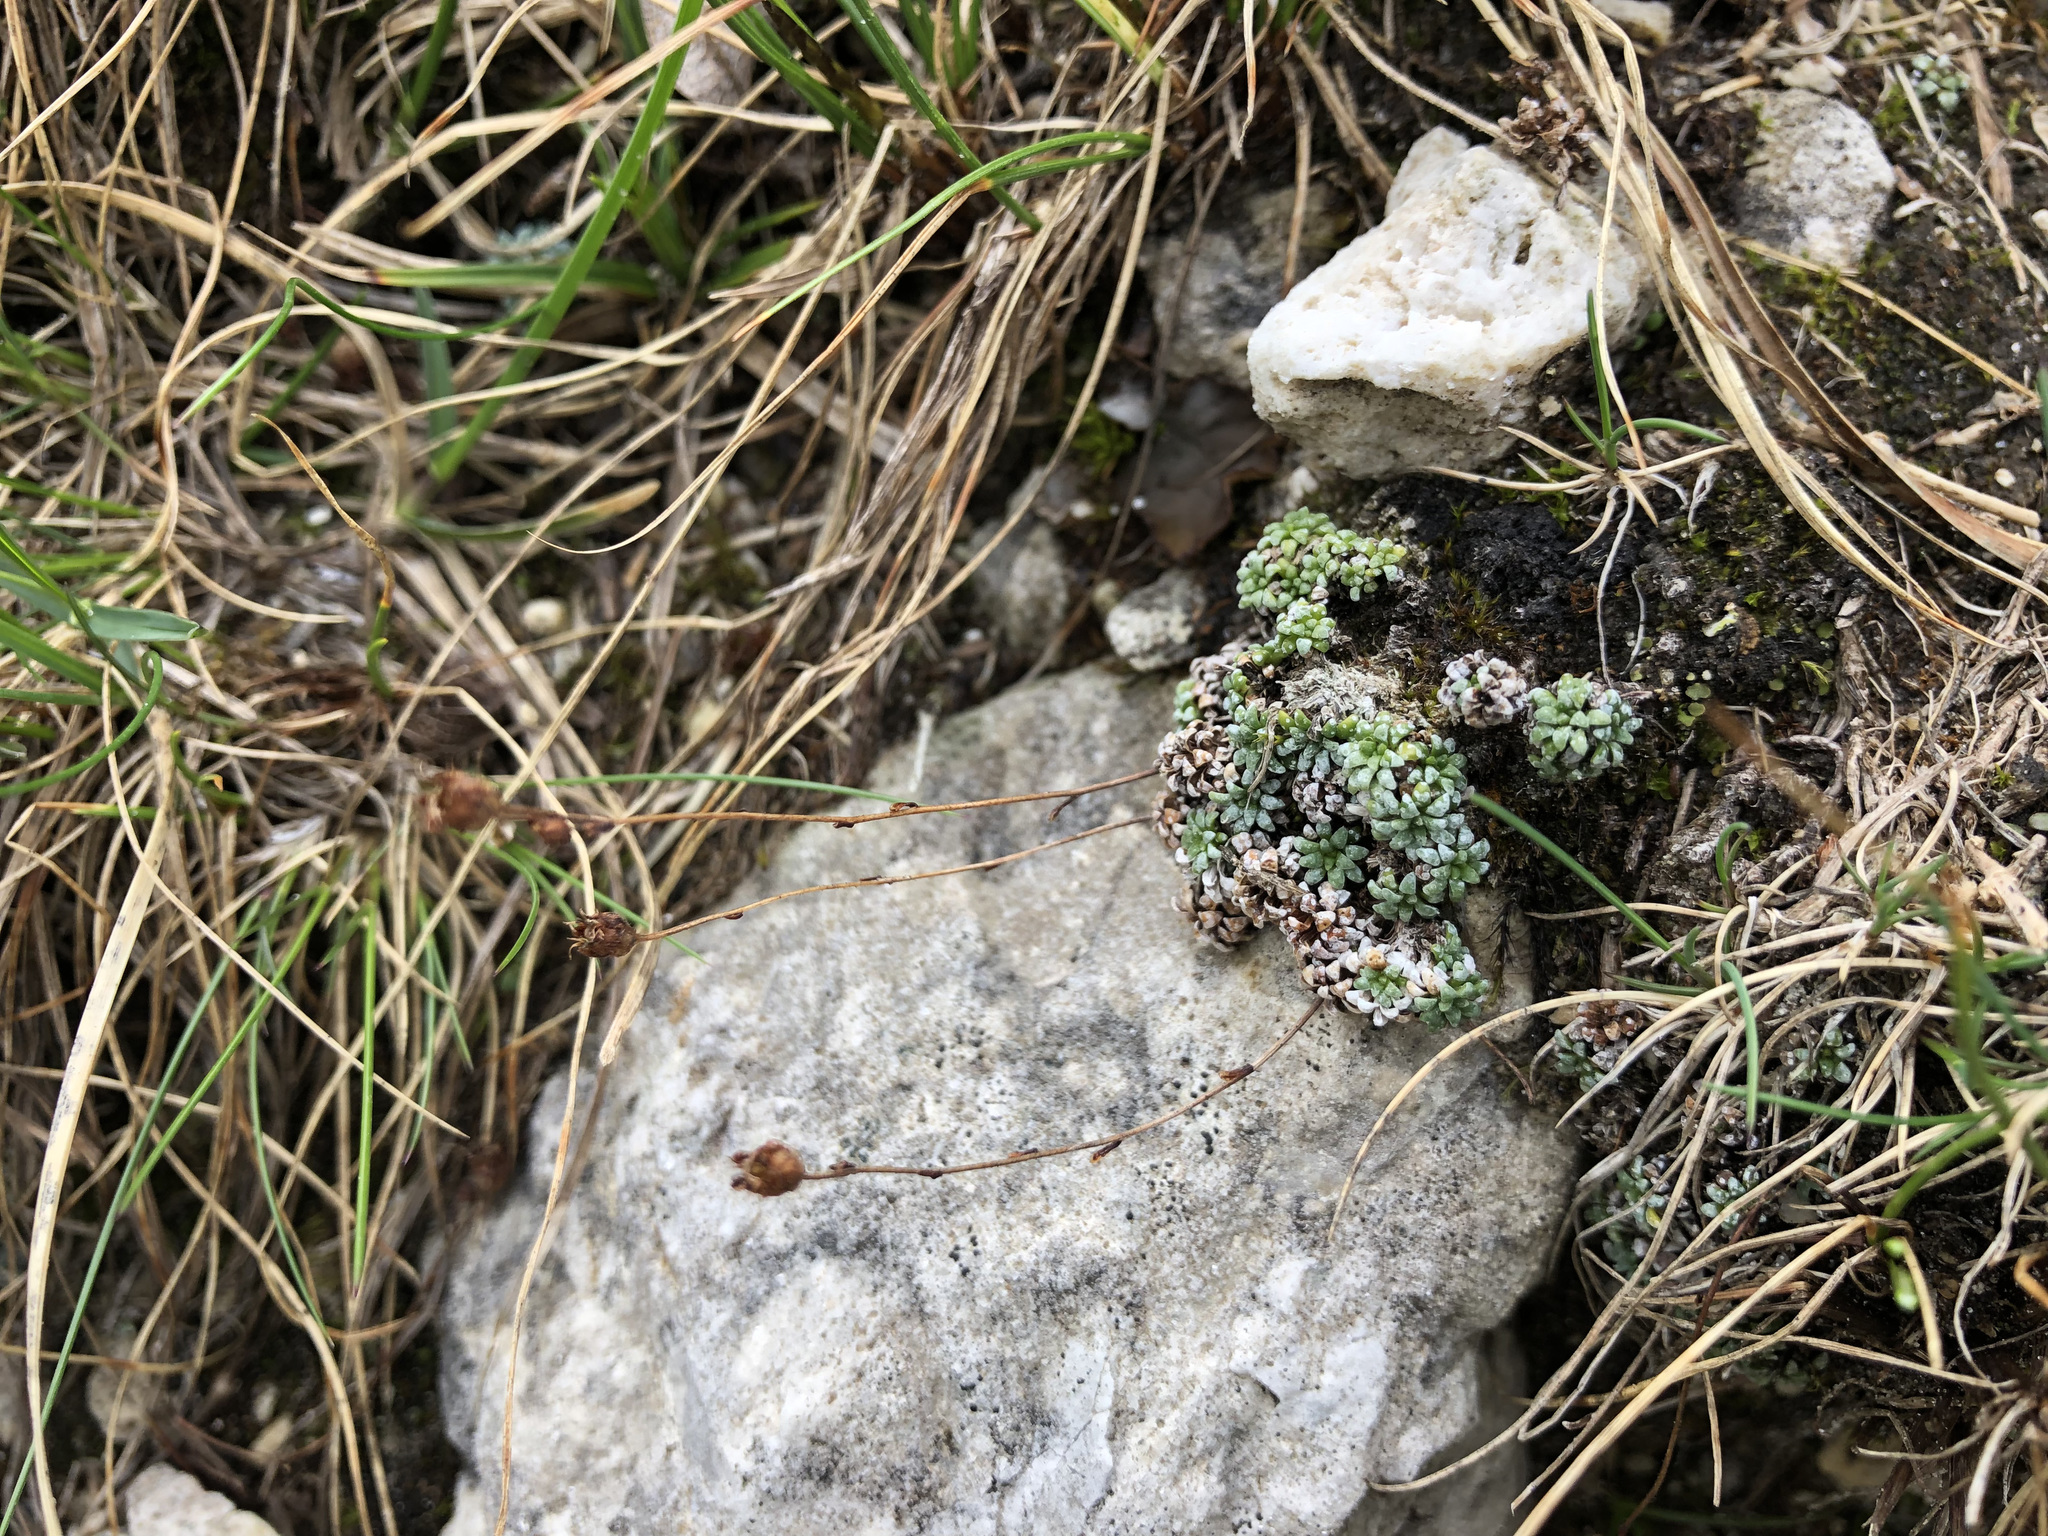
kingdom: Plantae
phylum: Tracheophyta
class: Magnoliopsida
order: Saxifragales
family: Saxifragaceae
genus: Saxifraga
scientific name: Saxifraga caesia
